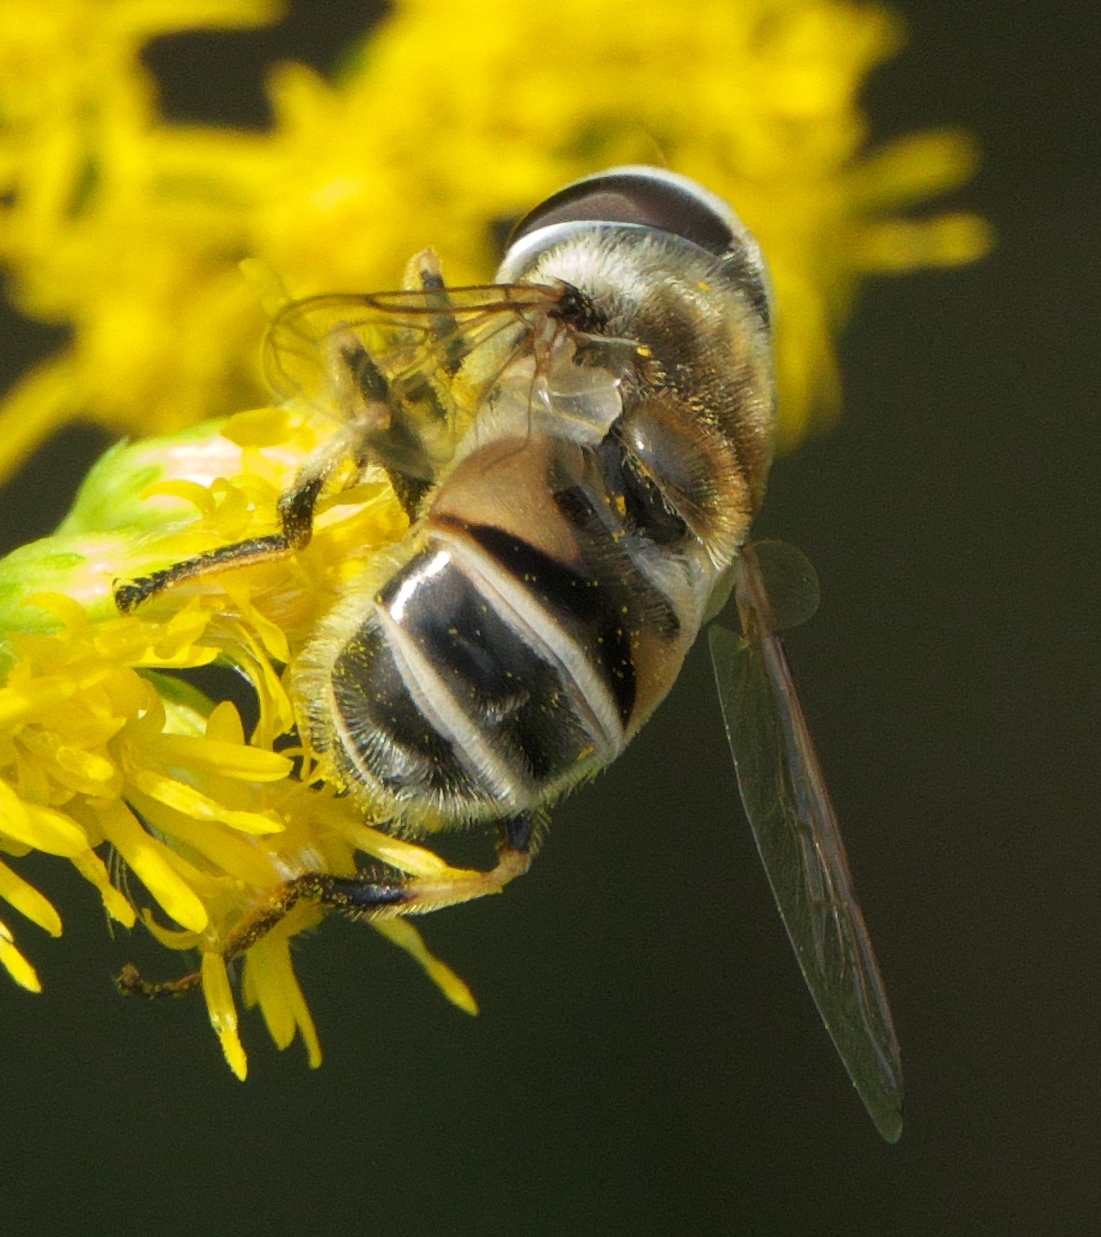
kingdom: Animalia
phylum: Arthropoda
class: Insecta
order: Diptera
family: Syrphidae
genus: Eristalis
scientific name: Eristalis stipator
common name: Yellow-shouldered drone fly
